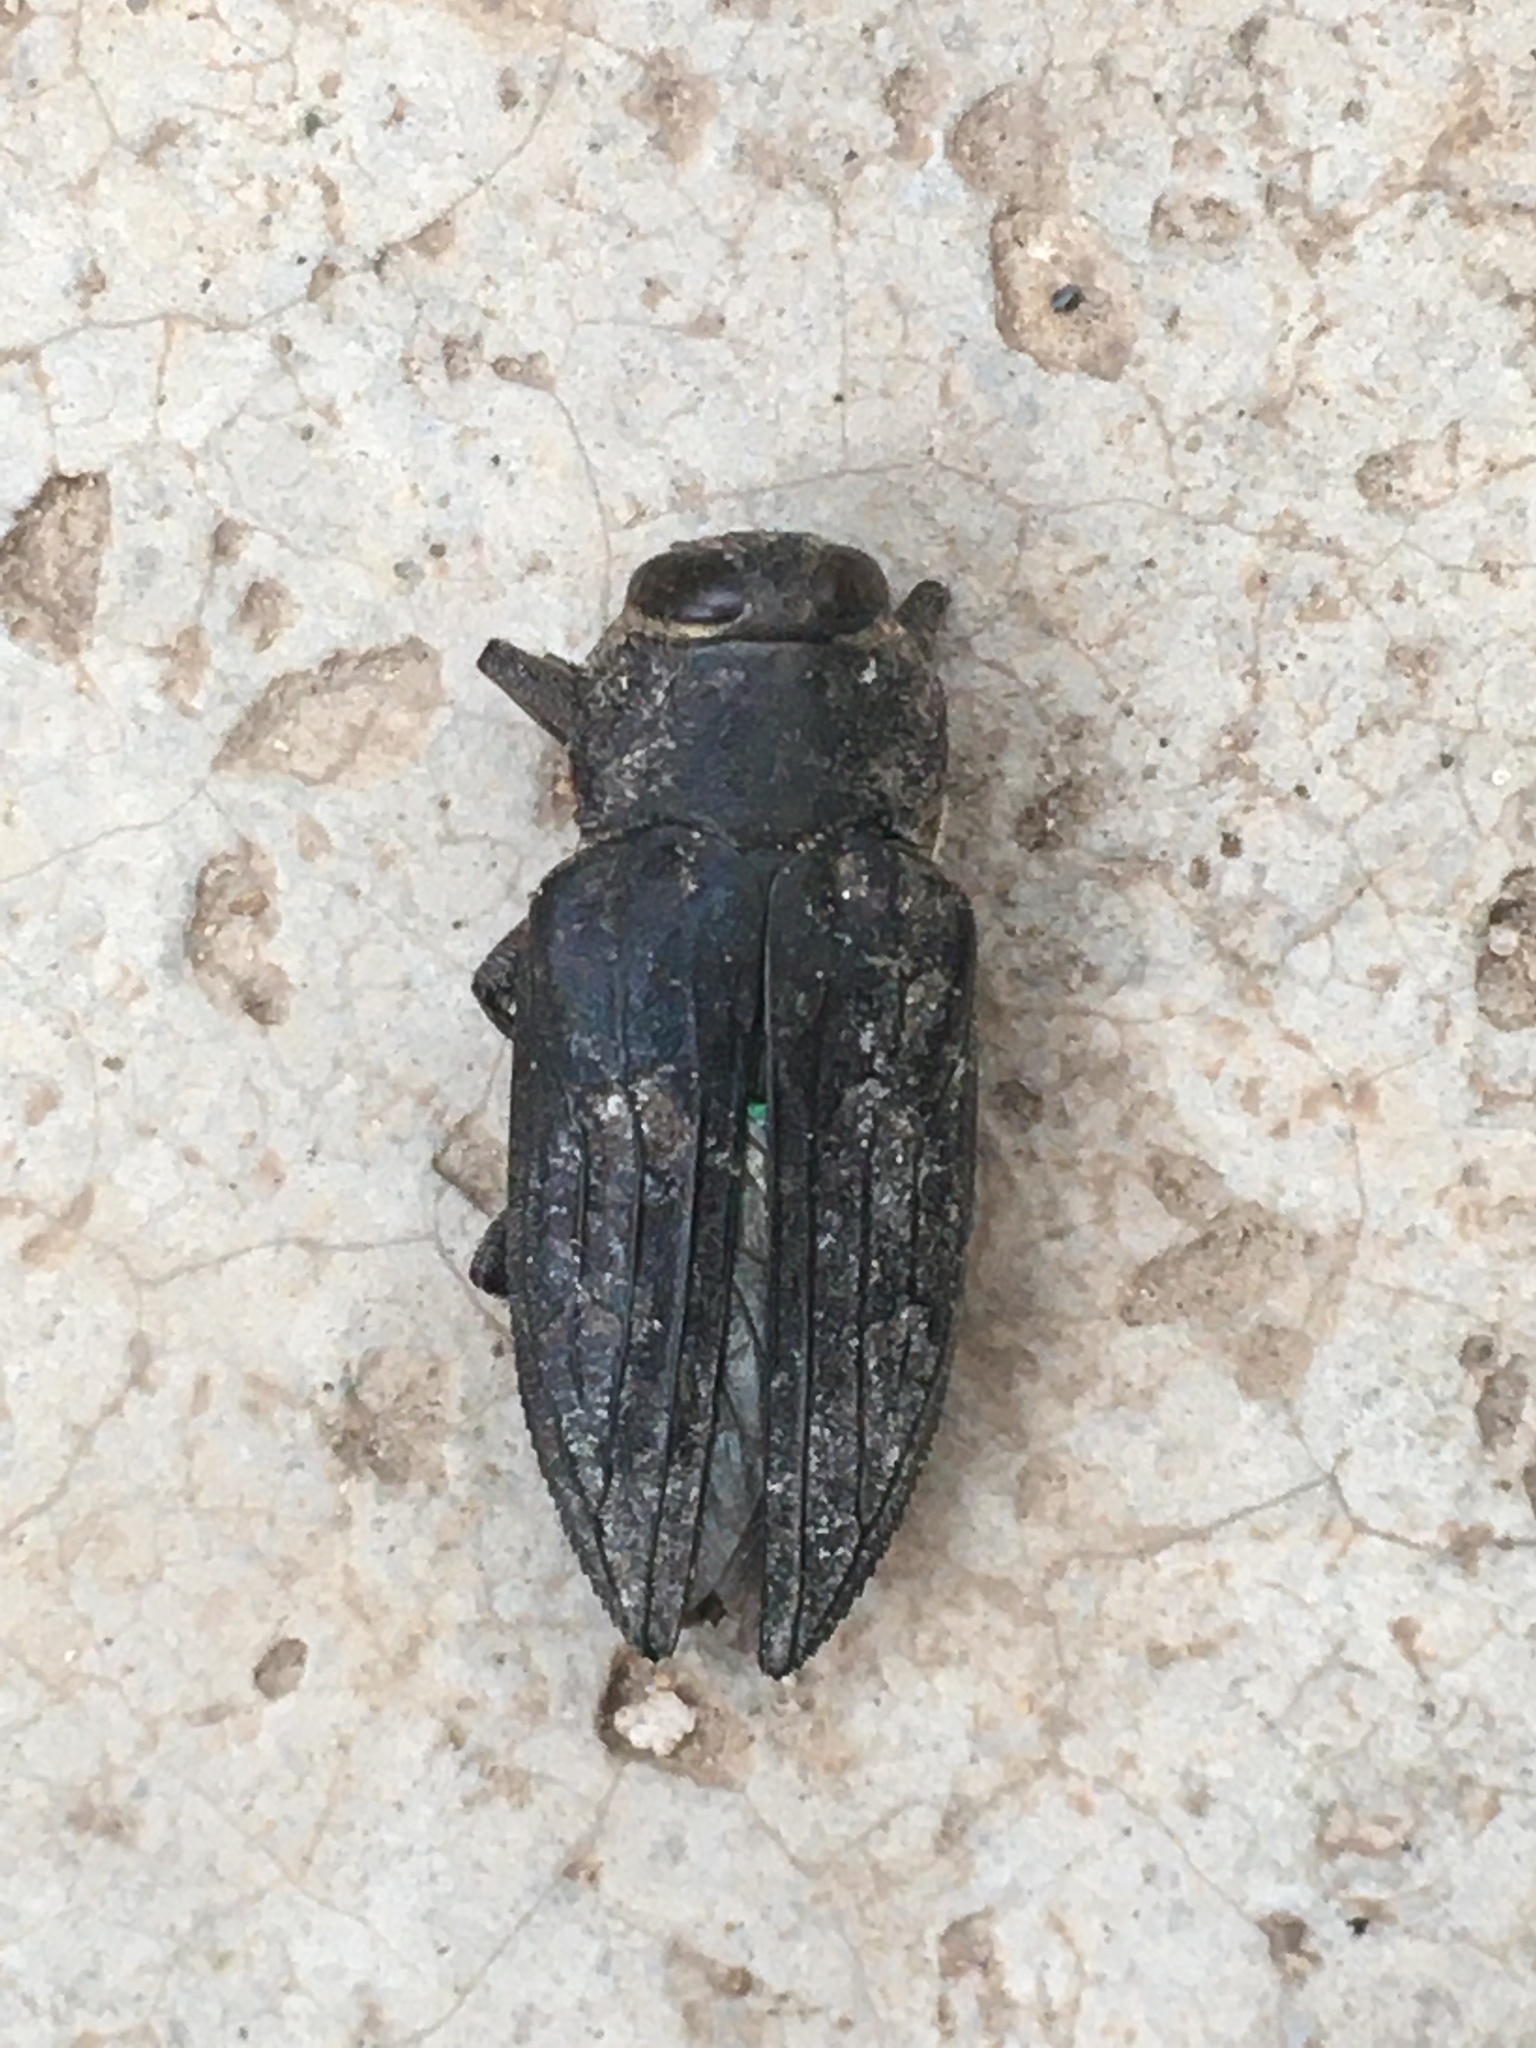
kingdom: Animalia
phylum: Arthropoda
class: Insecta
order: Coleoptera
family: Buprestidae
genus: Chrysobothris
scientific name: Chrysobothris merkelii
